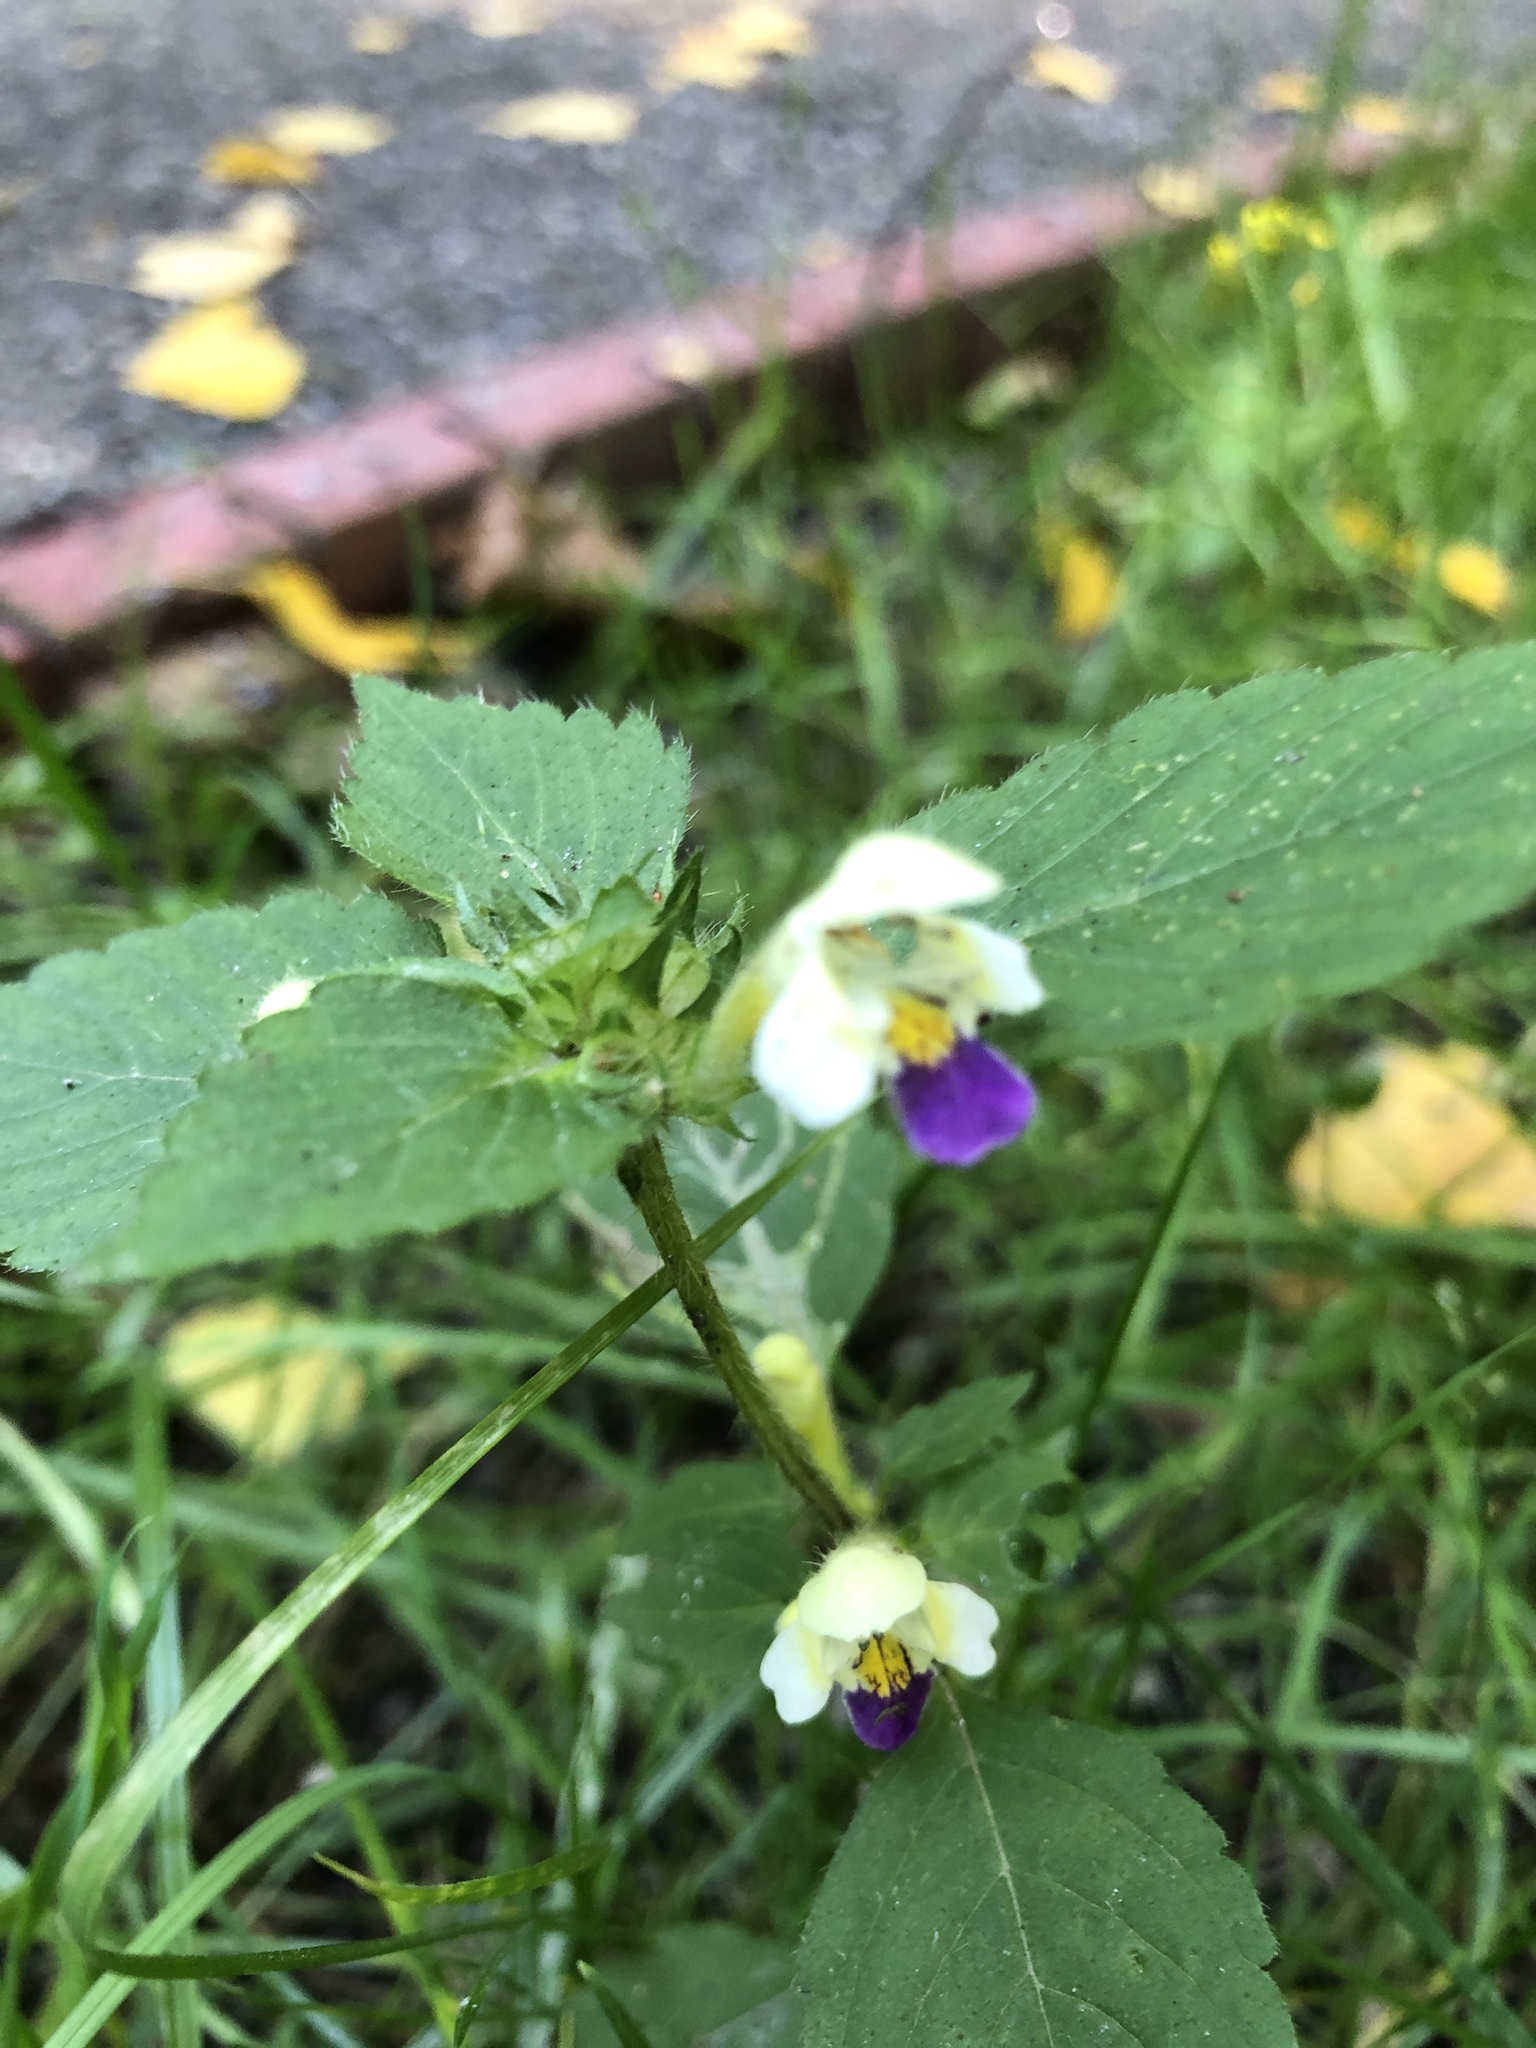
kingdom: Plantae
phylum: Tracheophyta
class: Magnoliopsida
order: Lamiales
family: Lamiaceae
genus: Galeopsis
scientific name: Galeopsis speciosa
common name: Large-flowered hemp-nettle
